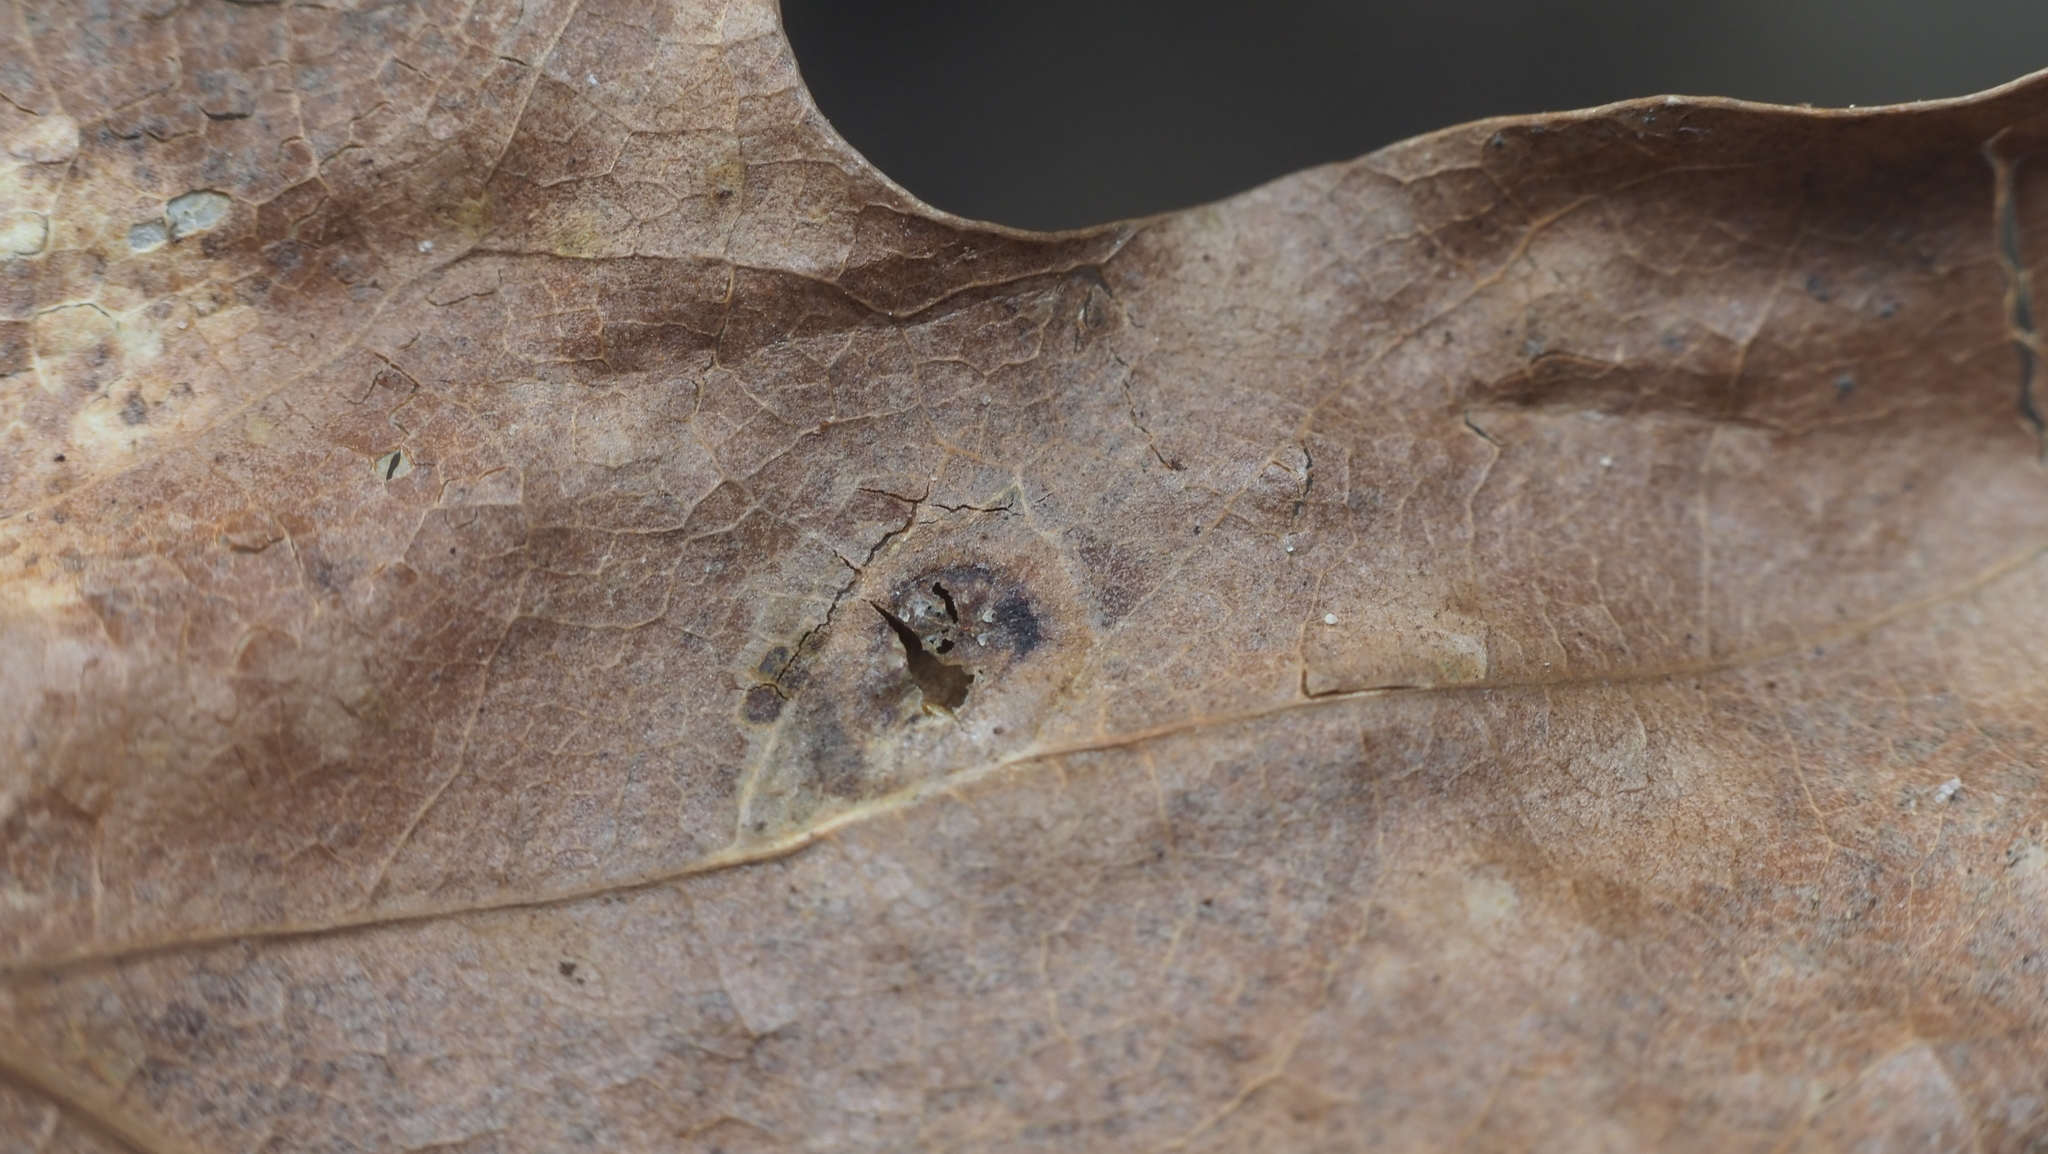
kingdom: Animalia
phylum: Arthropoda
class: Insecta
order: Hymenoptera
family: Cynipidae
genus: Dryocosmus
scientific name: Dryocosmus
